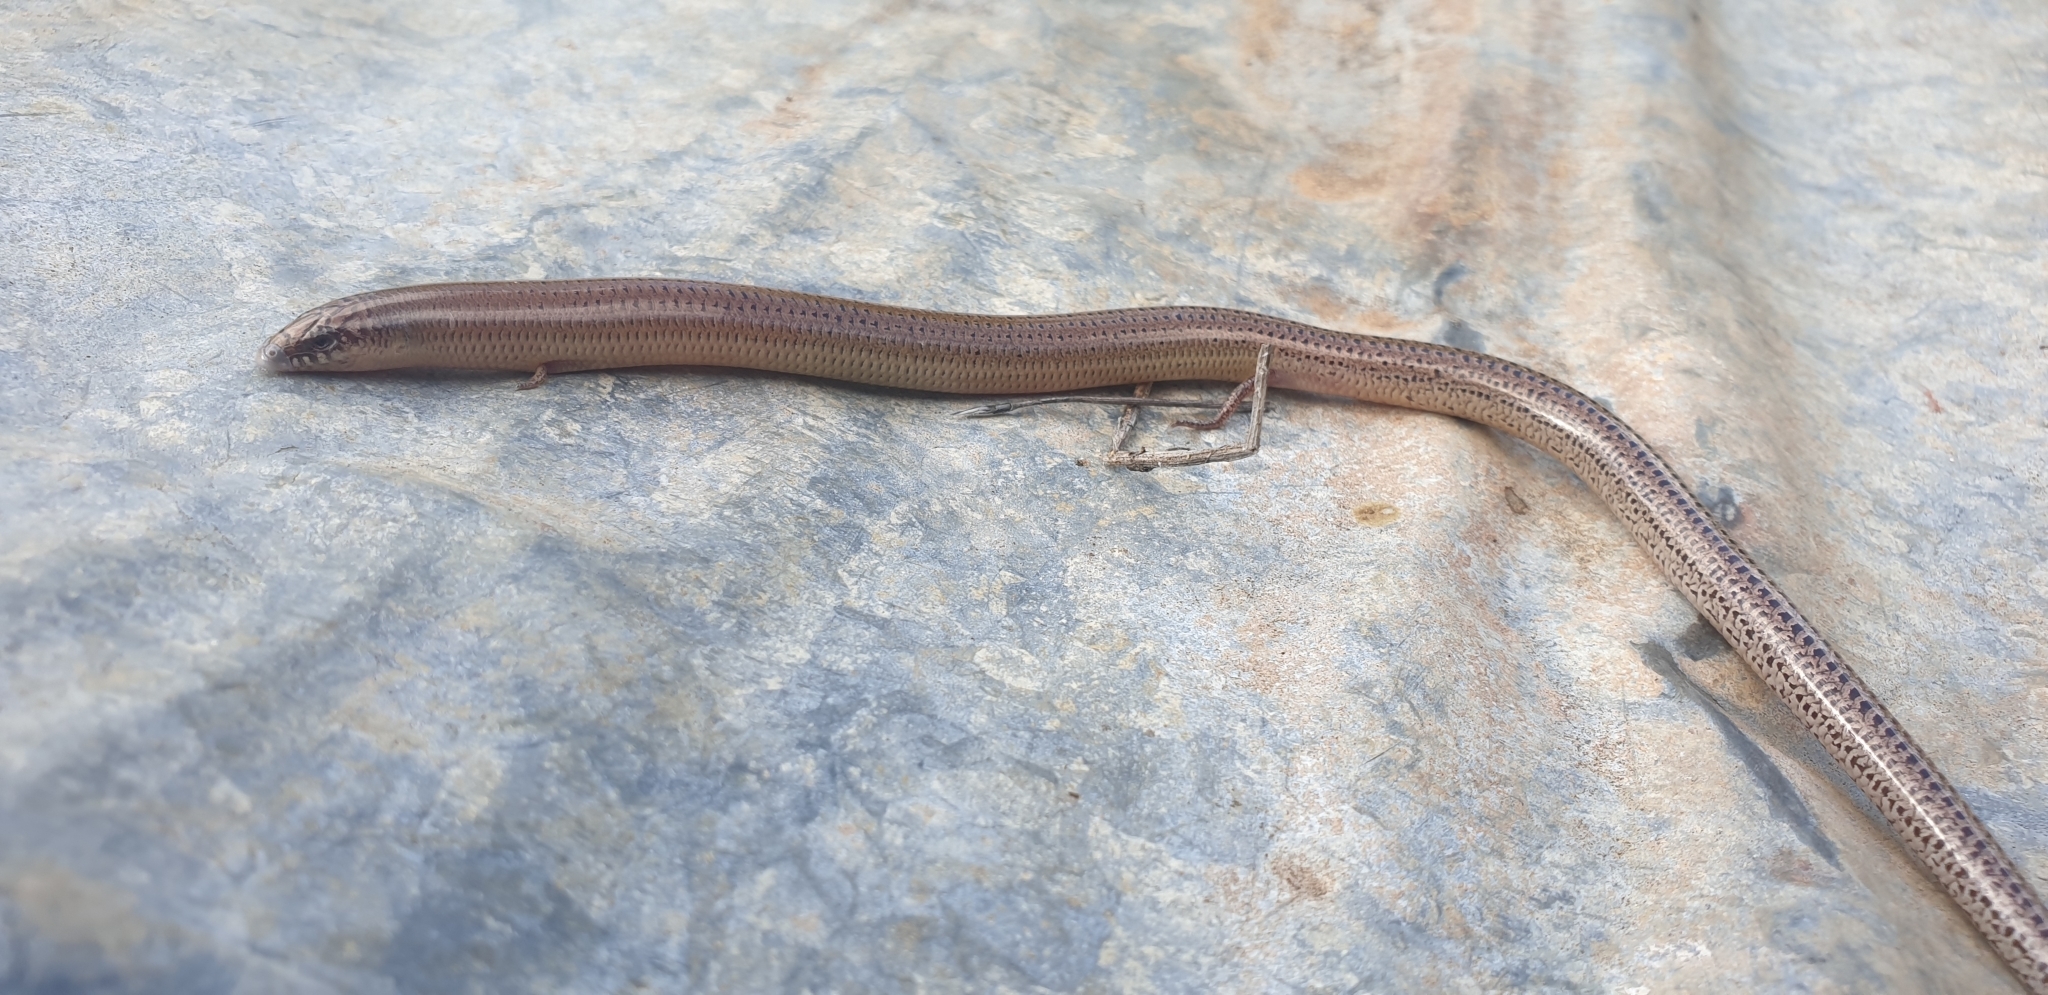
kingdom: Animalia
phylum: Chordata
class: Squamata
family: Scincidae
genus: Lerista
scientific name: Lerista punctatovittata
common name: Eastern robust slider
